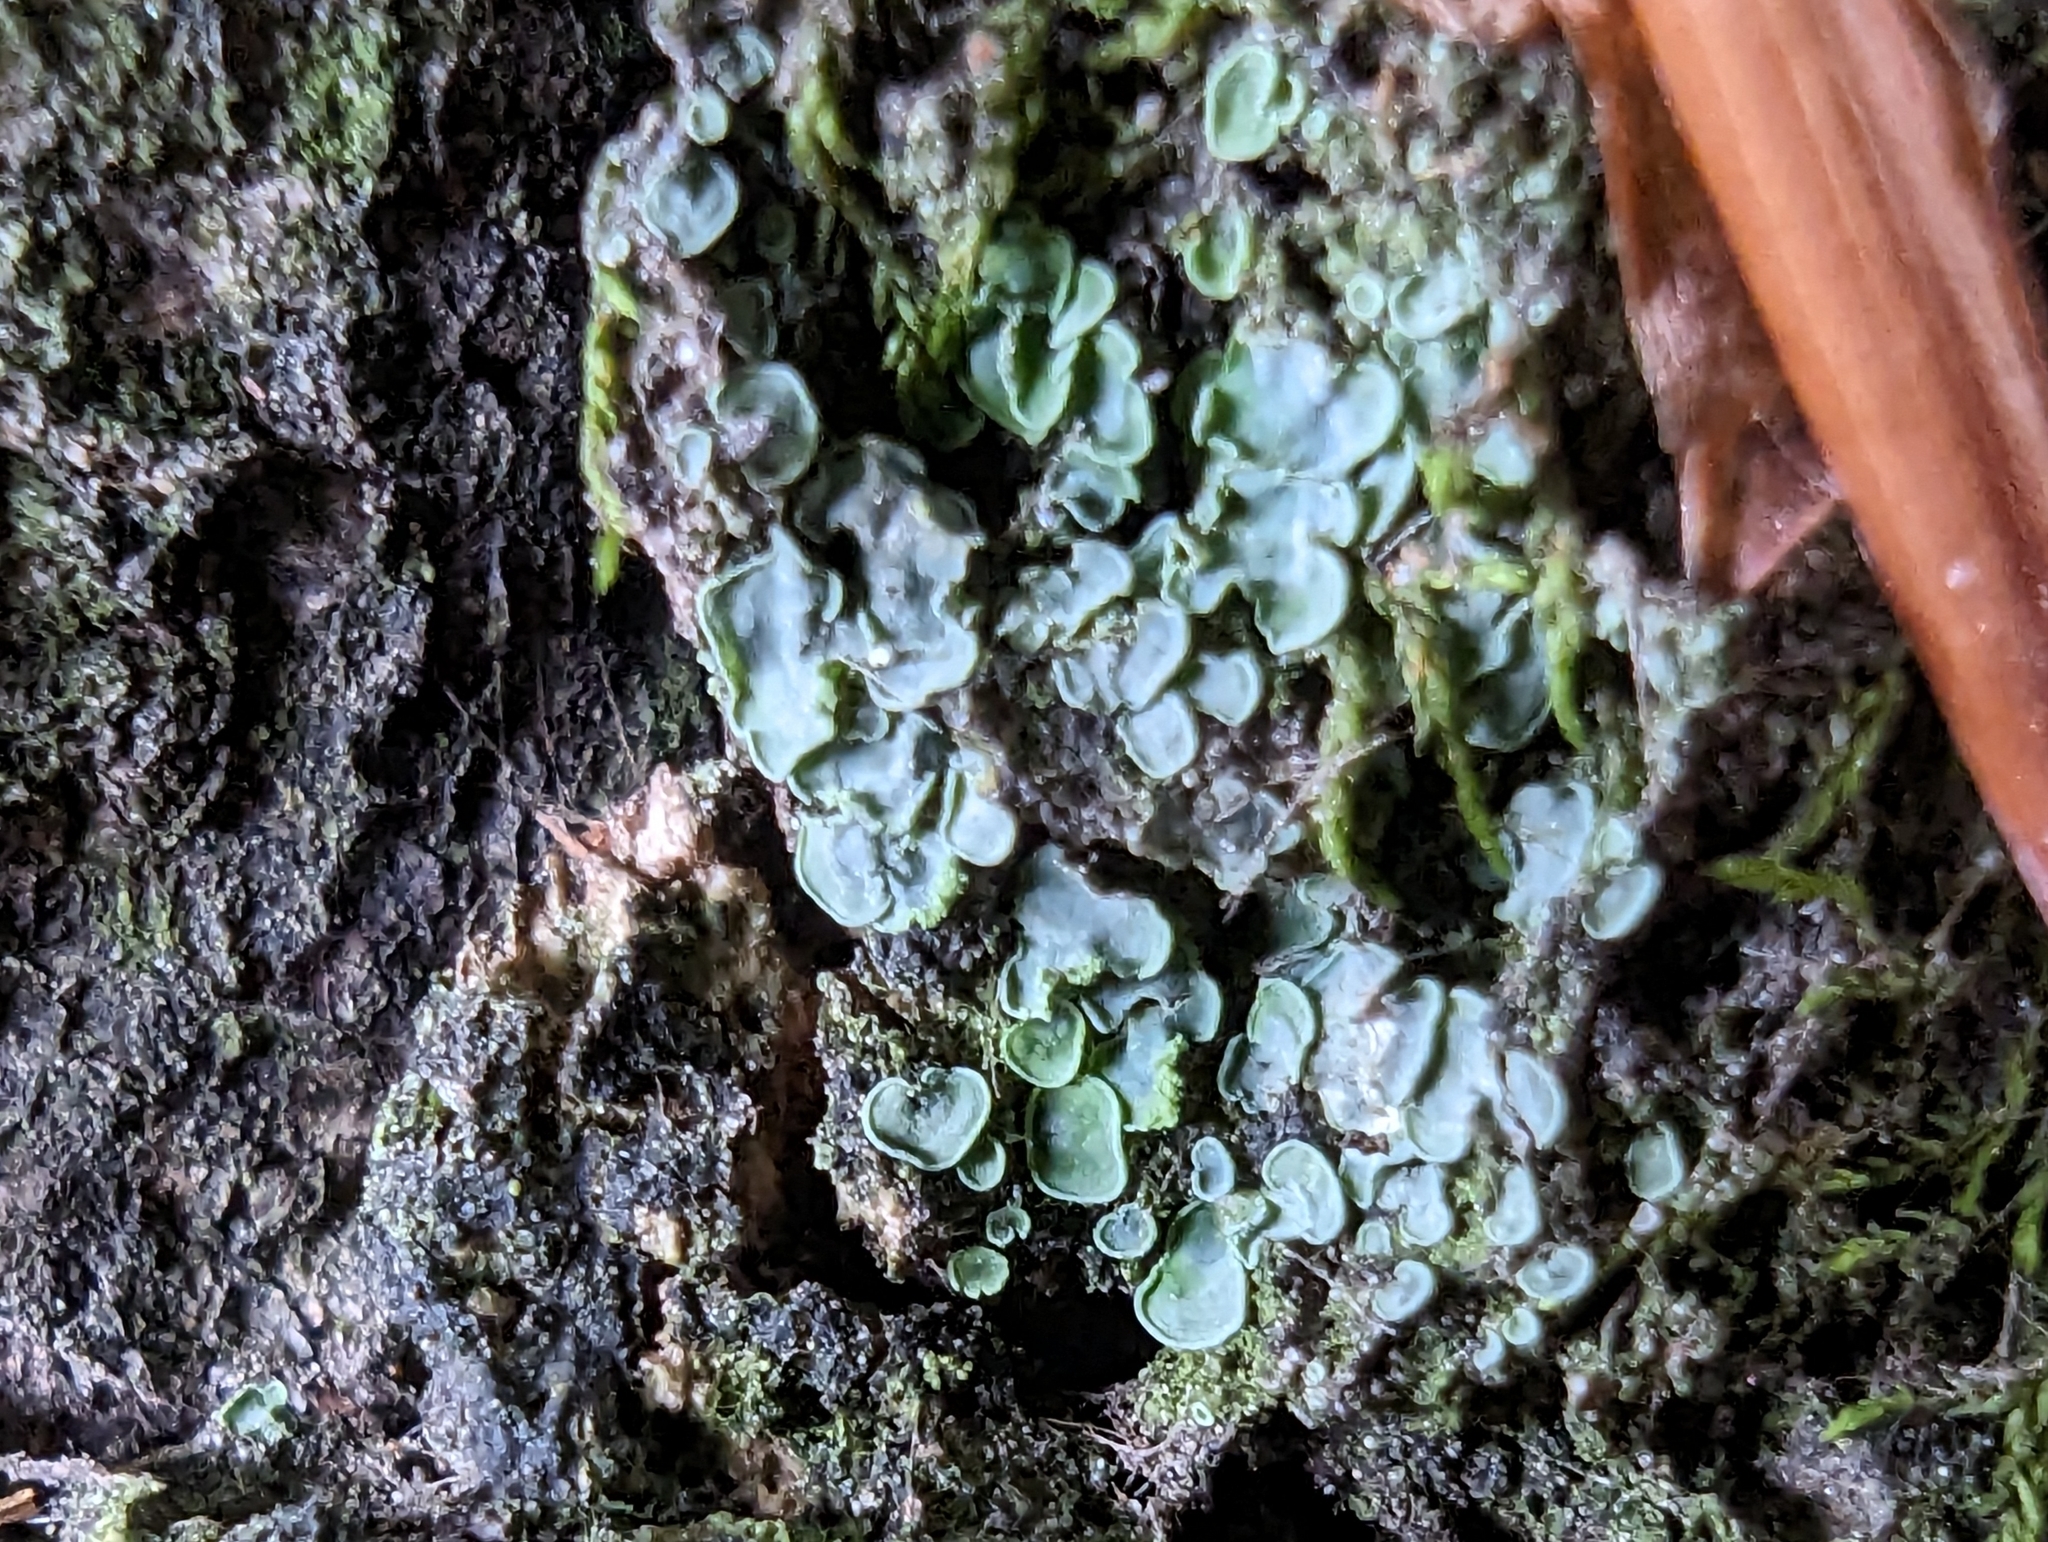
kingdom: Fungi
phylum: Ascomycota
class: Eurotiomycetes
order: Verrucariales
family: Verrucariaceae
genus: Normandina
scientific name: Normandina pulchella
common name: Elf ears lichen
